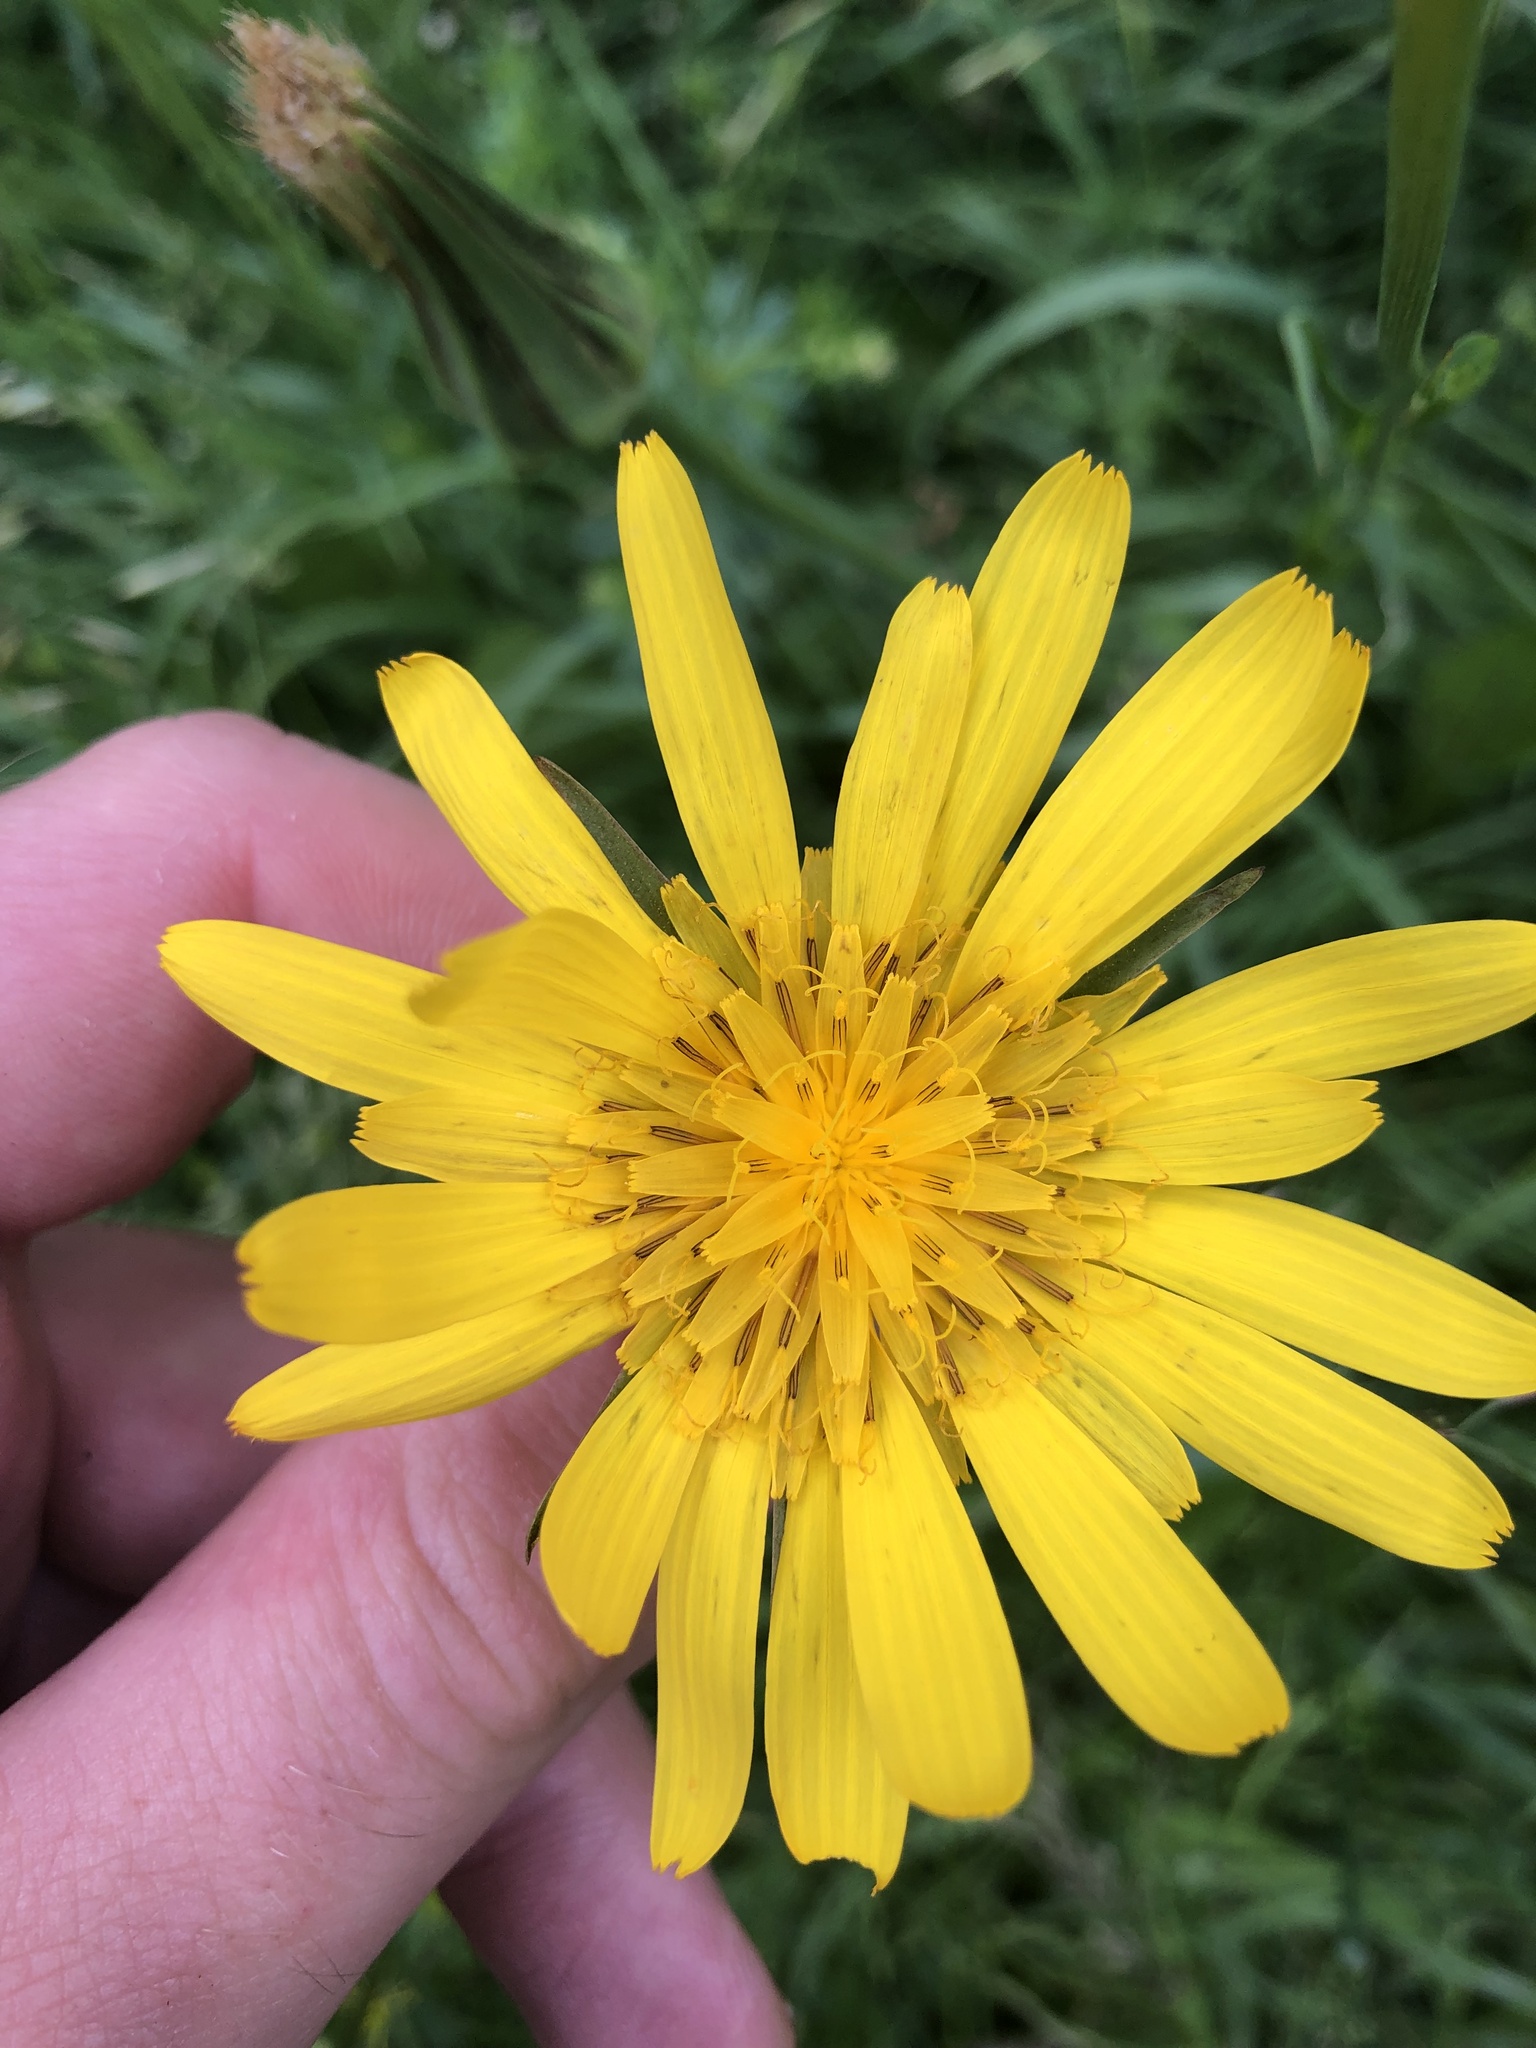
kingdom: Plantae
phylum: Tracheophyta
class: Magnoliopsida
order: Asterales
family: Asteraceae
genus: Tragopogon
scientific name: Tragopogon orientalis
